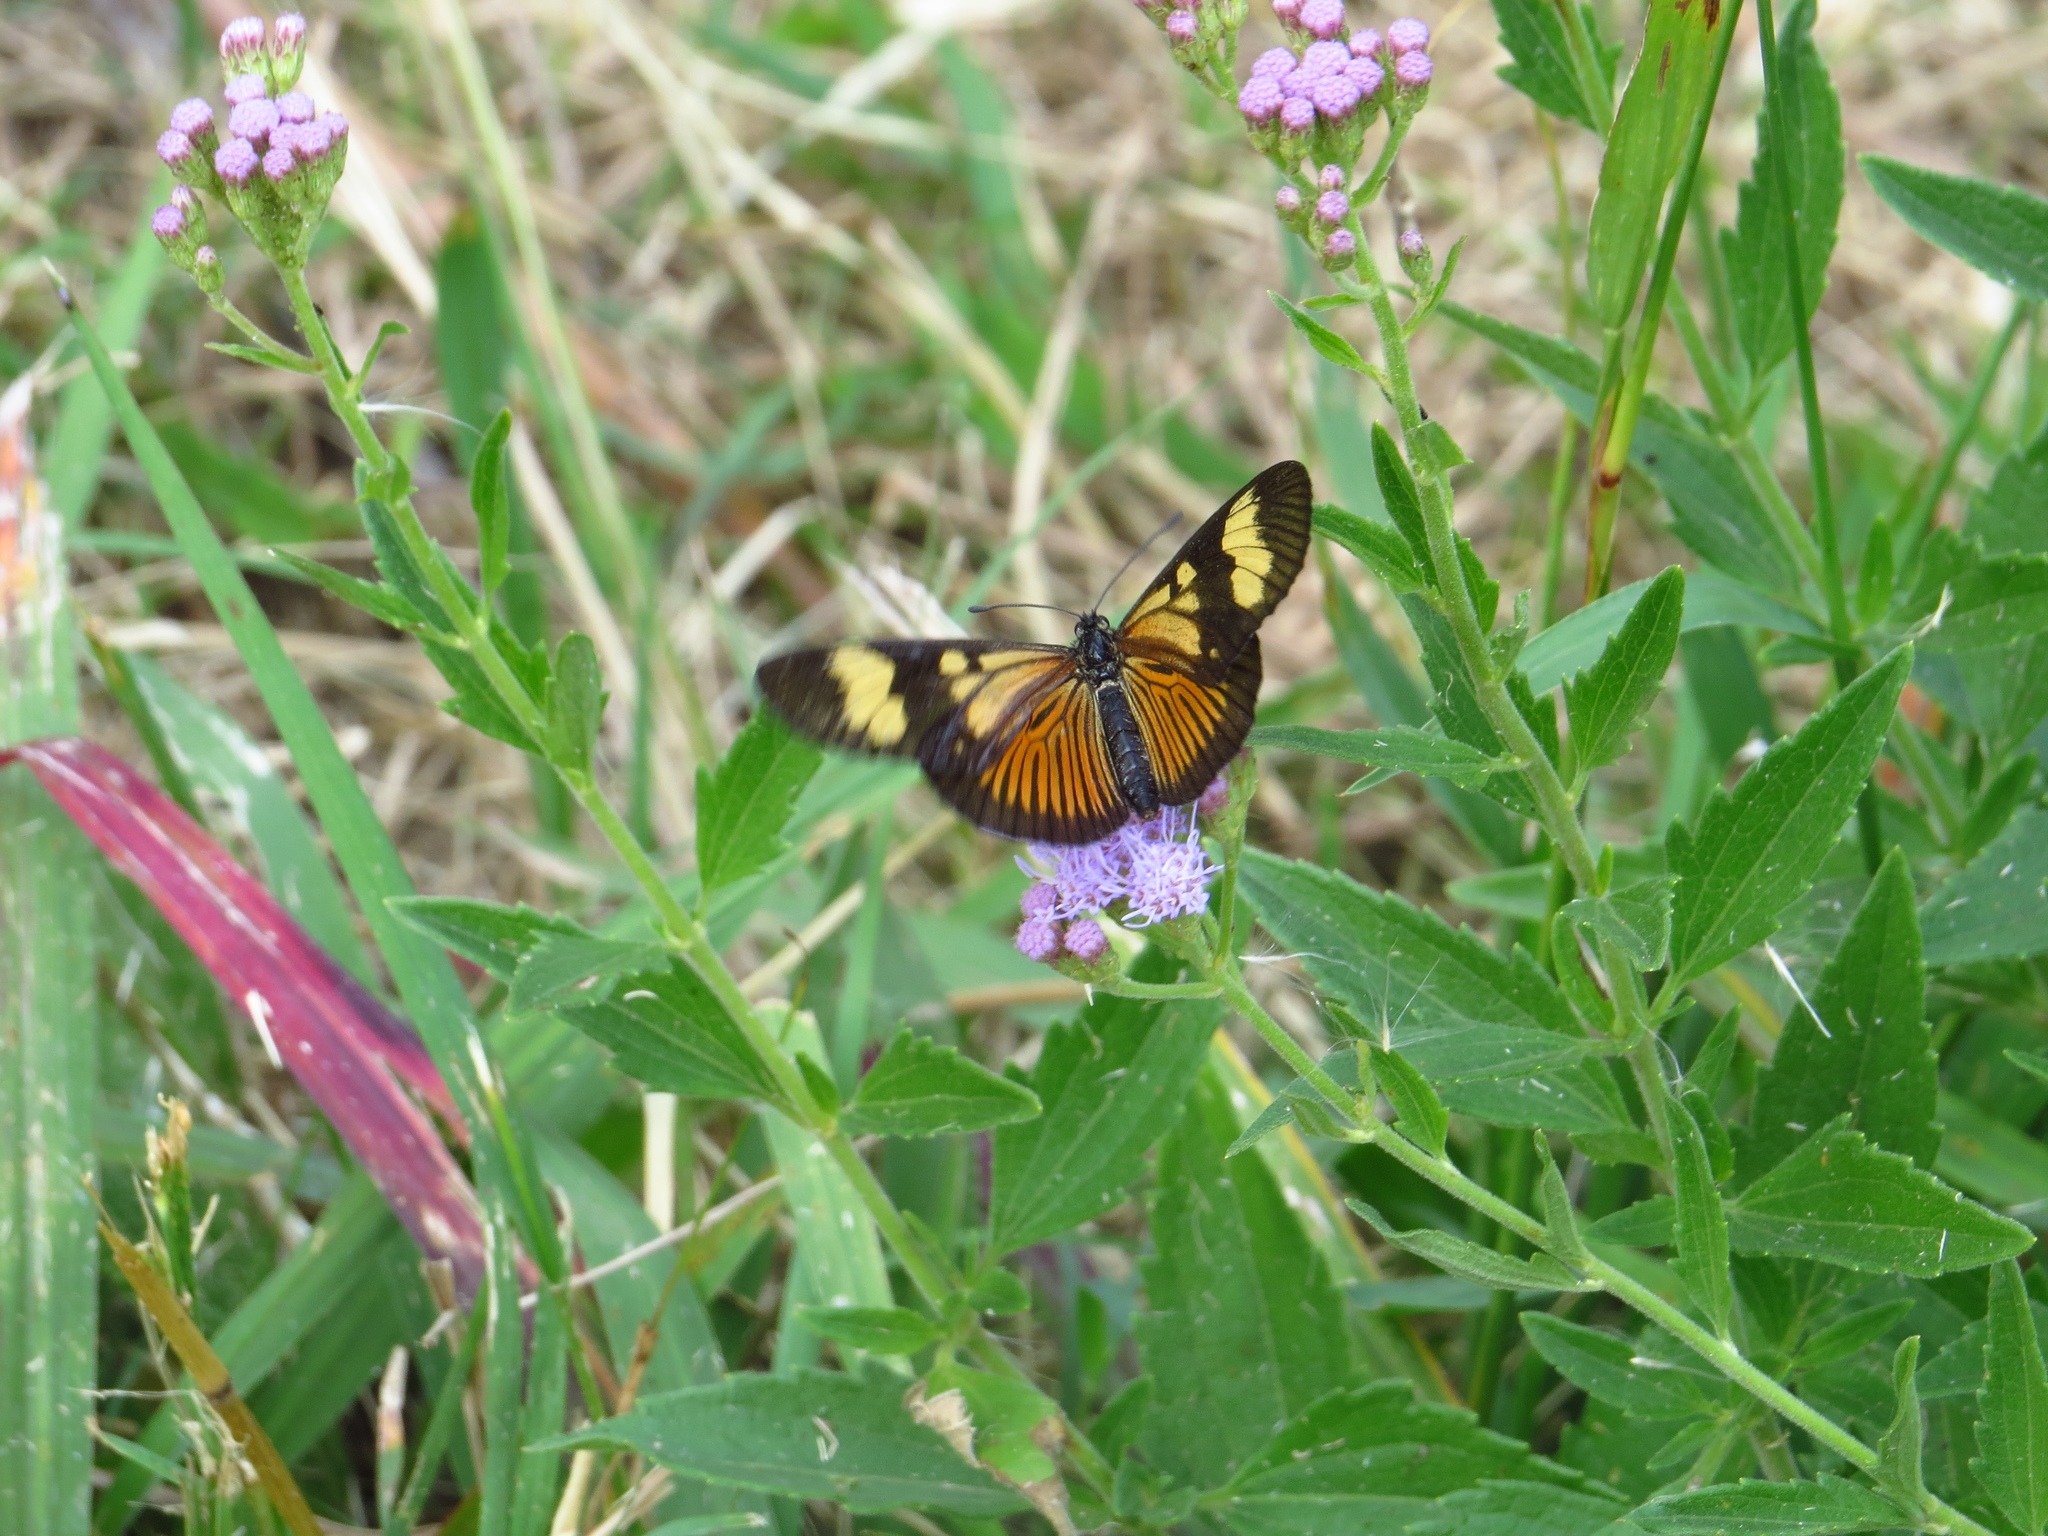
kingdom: Animalia
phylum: Arthropoda
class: Insecta
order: Lepidoptera
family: Nymphalidae
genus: Actinote
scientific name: Actinote pellenea
